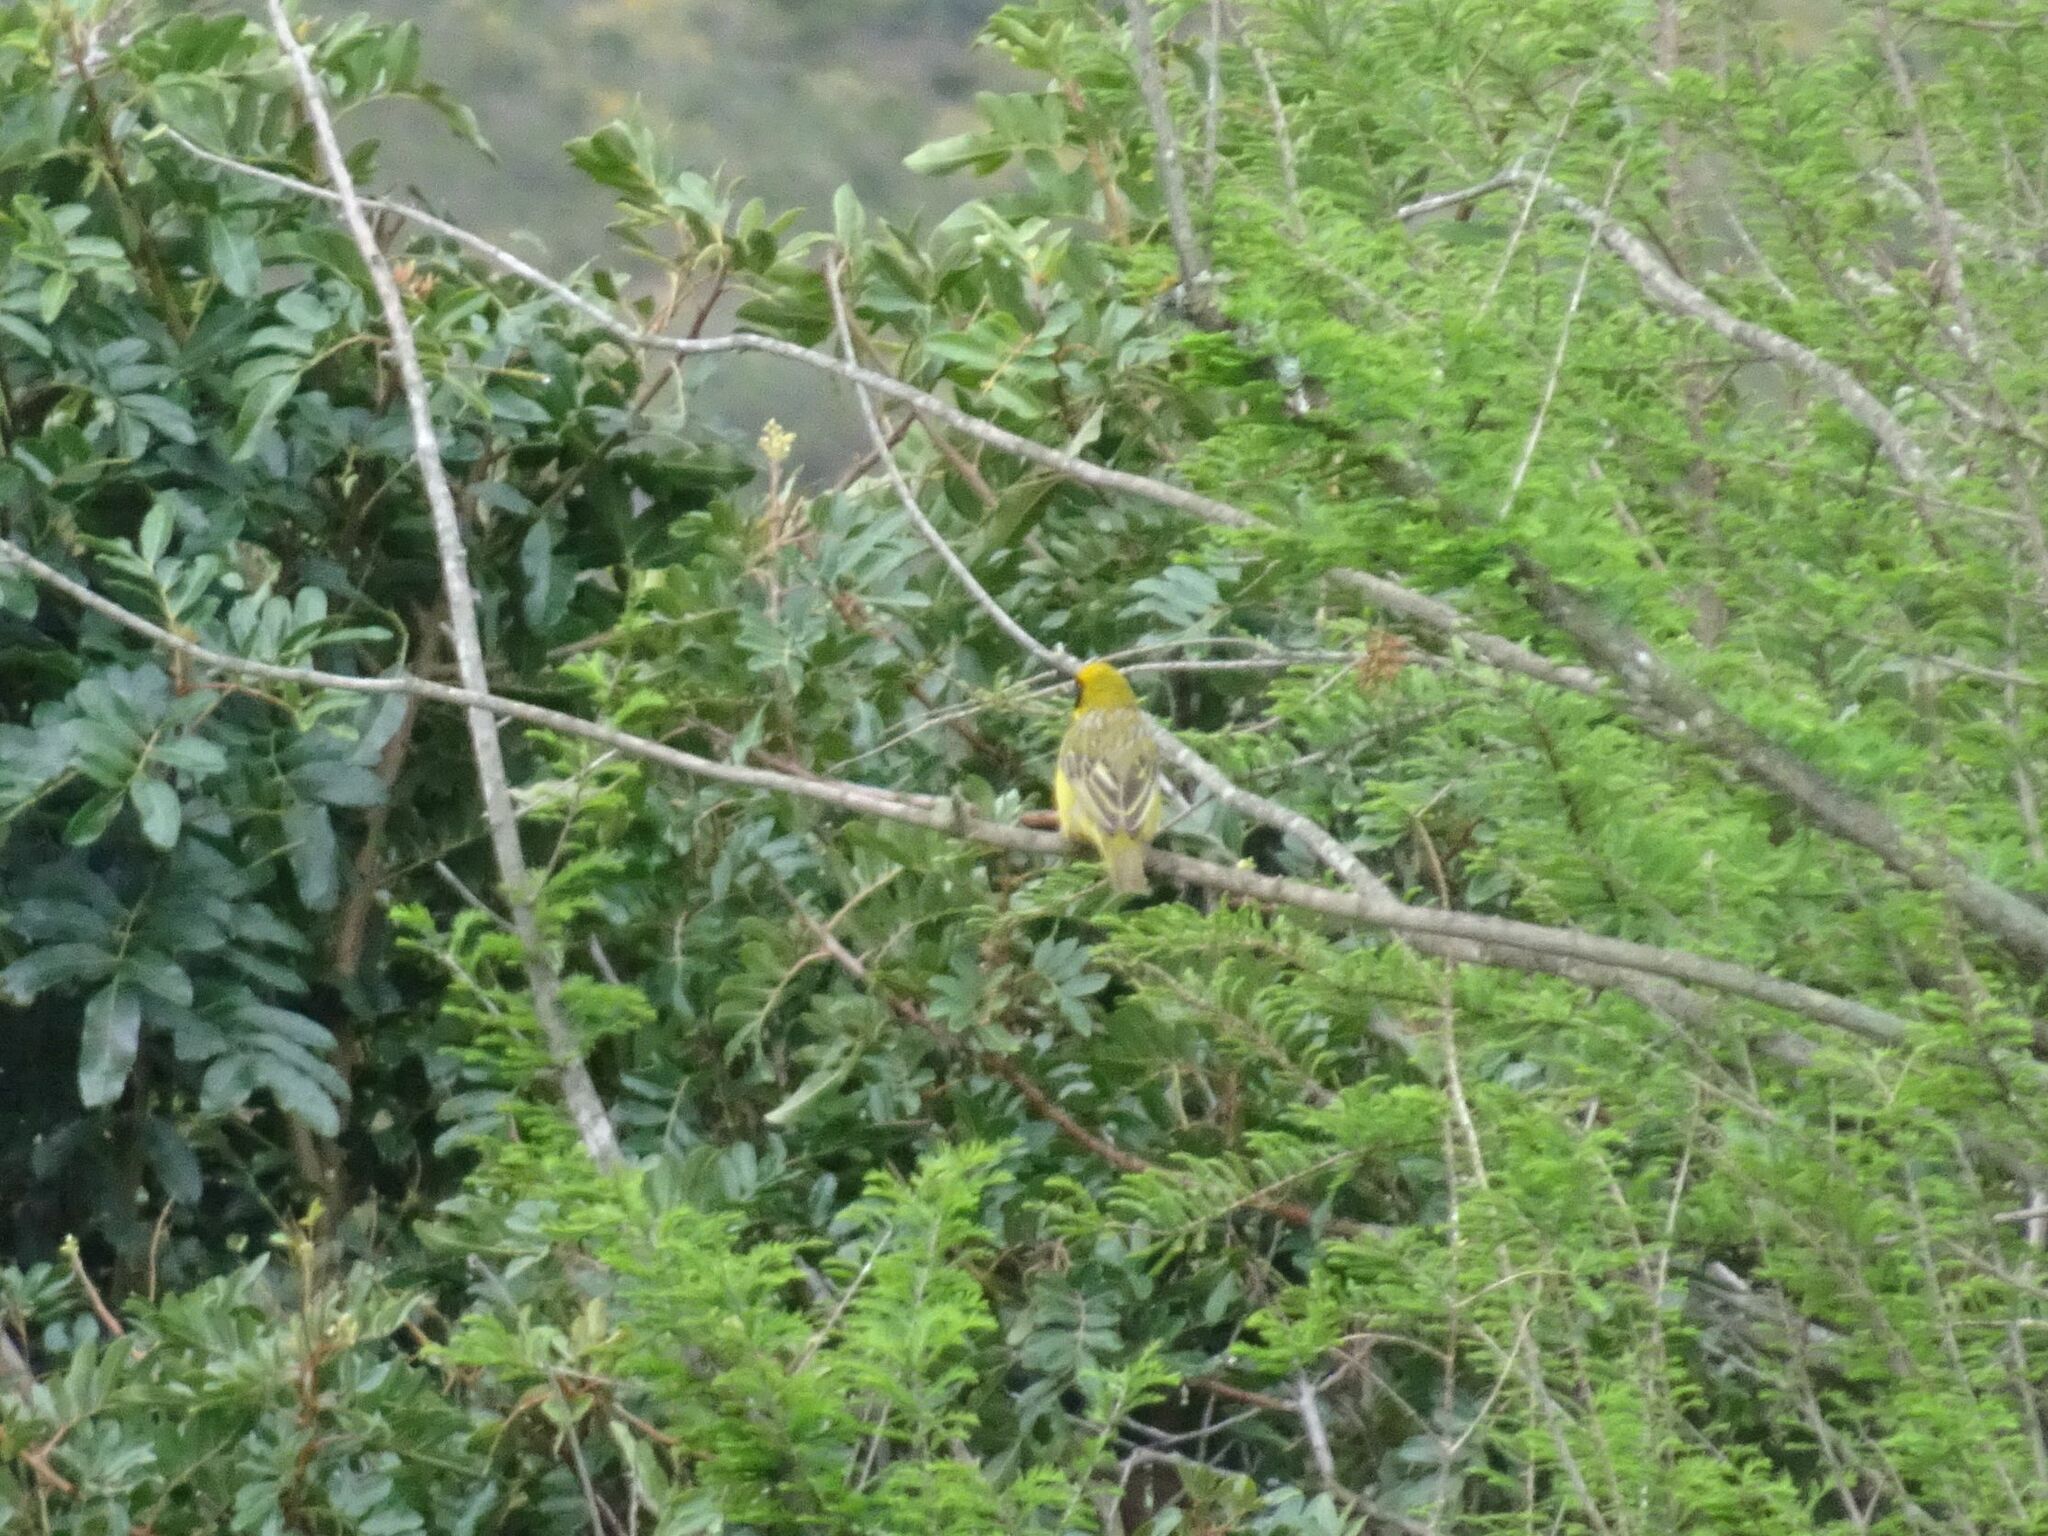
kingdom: Animalia
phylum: Chordata
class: Aves
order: Passeriformes
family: Ploceidae
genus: Ploceus
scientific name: Ploceus velatus
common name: Southern masked weaver
